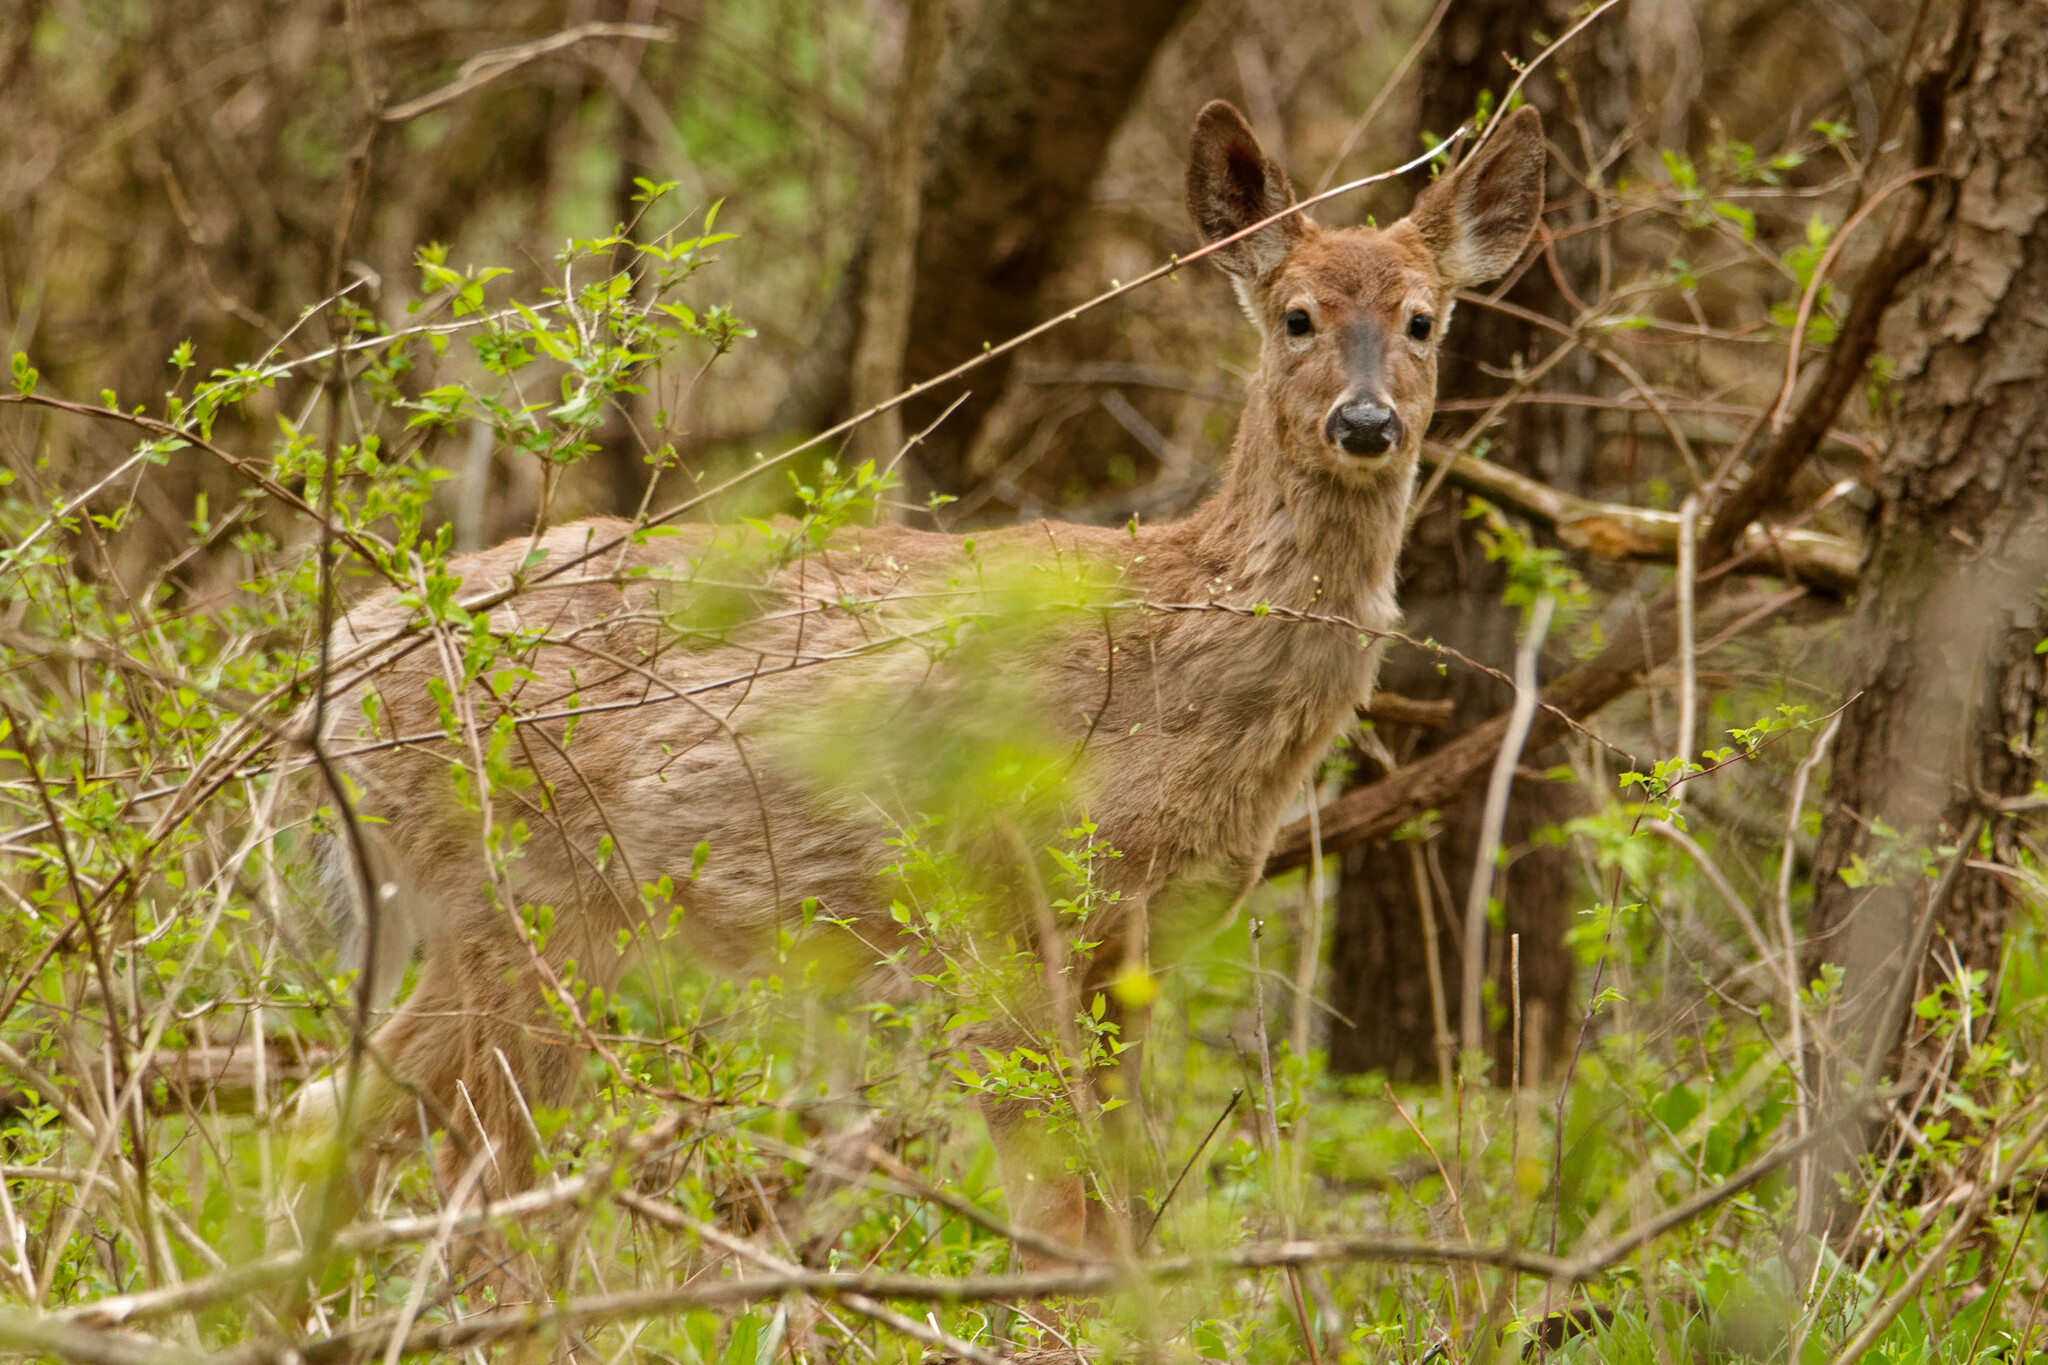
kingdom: Animalia
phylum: Chordata
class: Mammalia
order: Artiodactyla
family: Cervidae
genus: Odocoileus
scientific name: Odocoileus virginianus
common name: White-tailed deer
